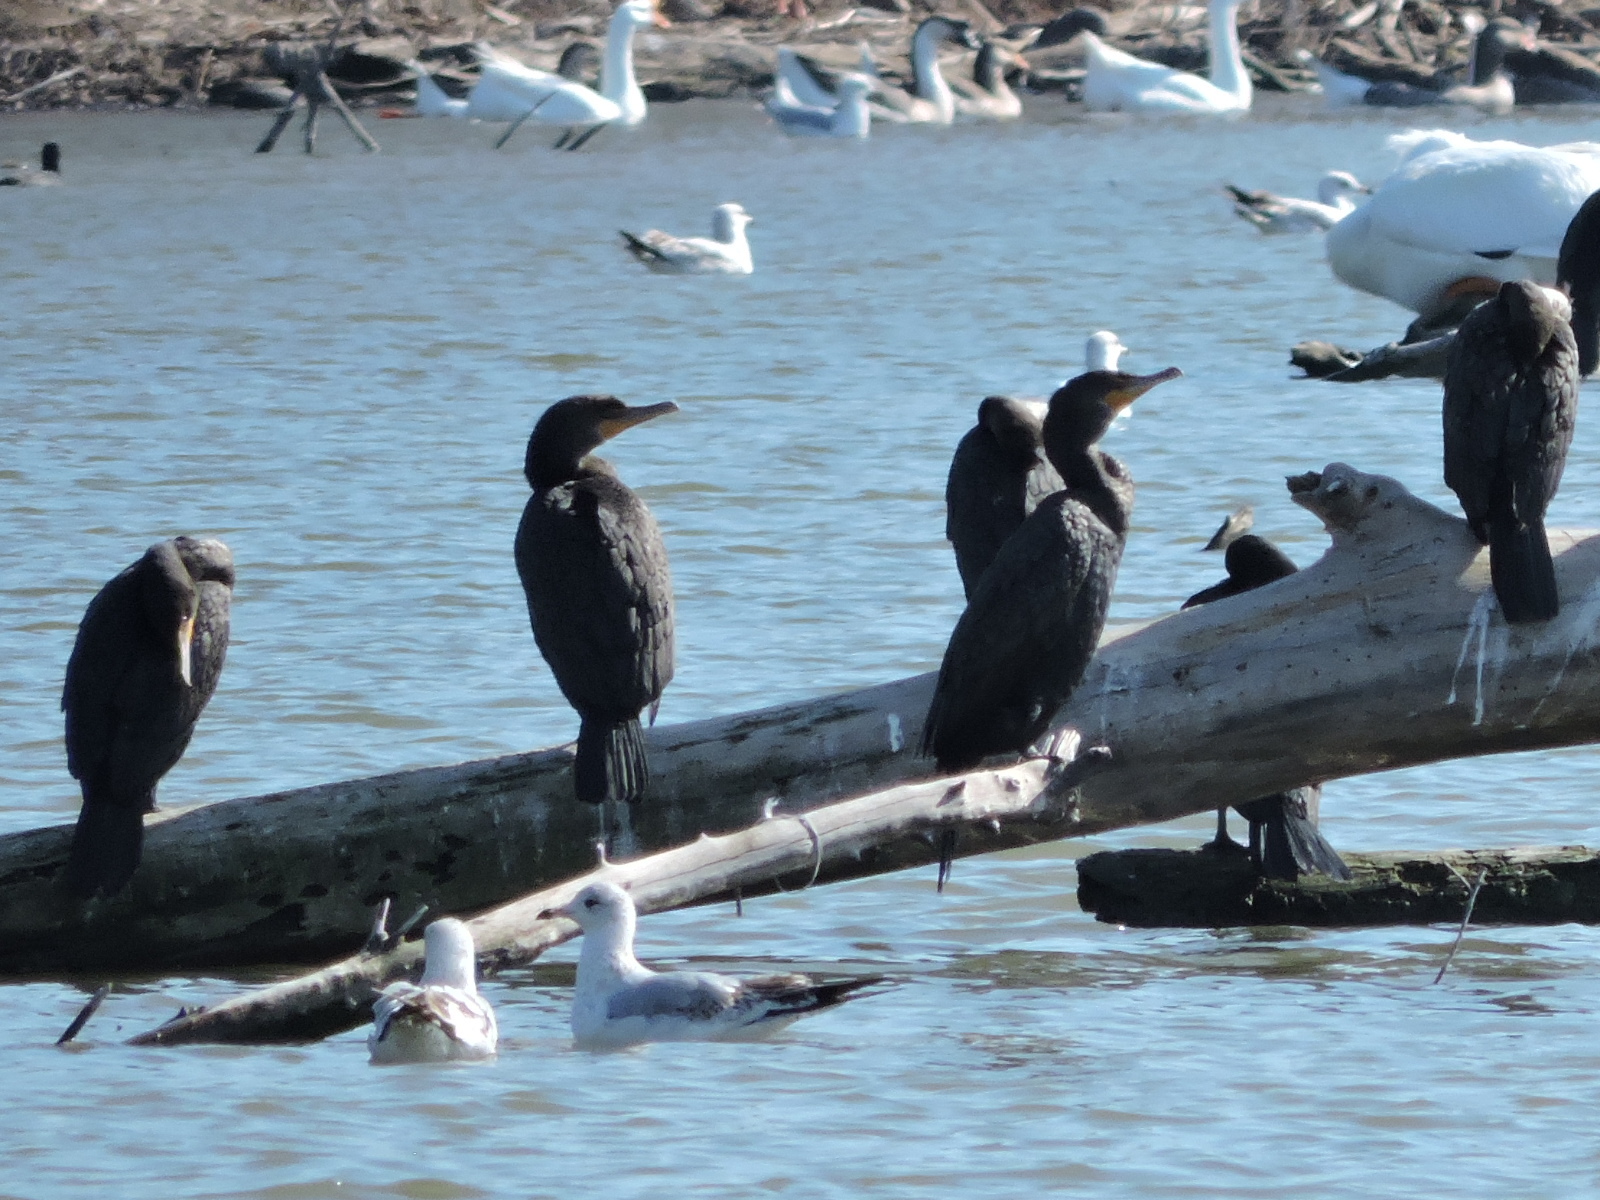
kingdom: Animalia
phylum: Chordata
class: Aves
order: Suliformes
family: Phalacrocoracidae
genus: Phalacrocorax
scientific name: Phalacrocorax auritus
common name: Double-crested cormorant
